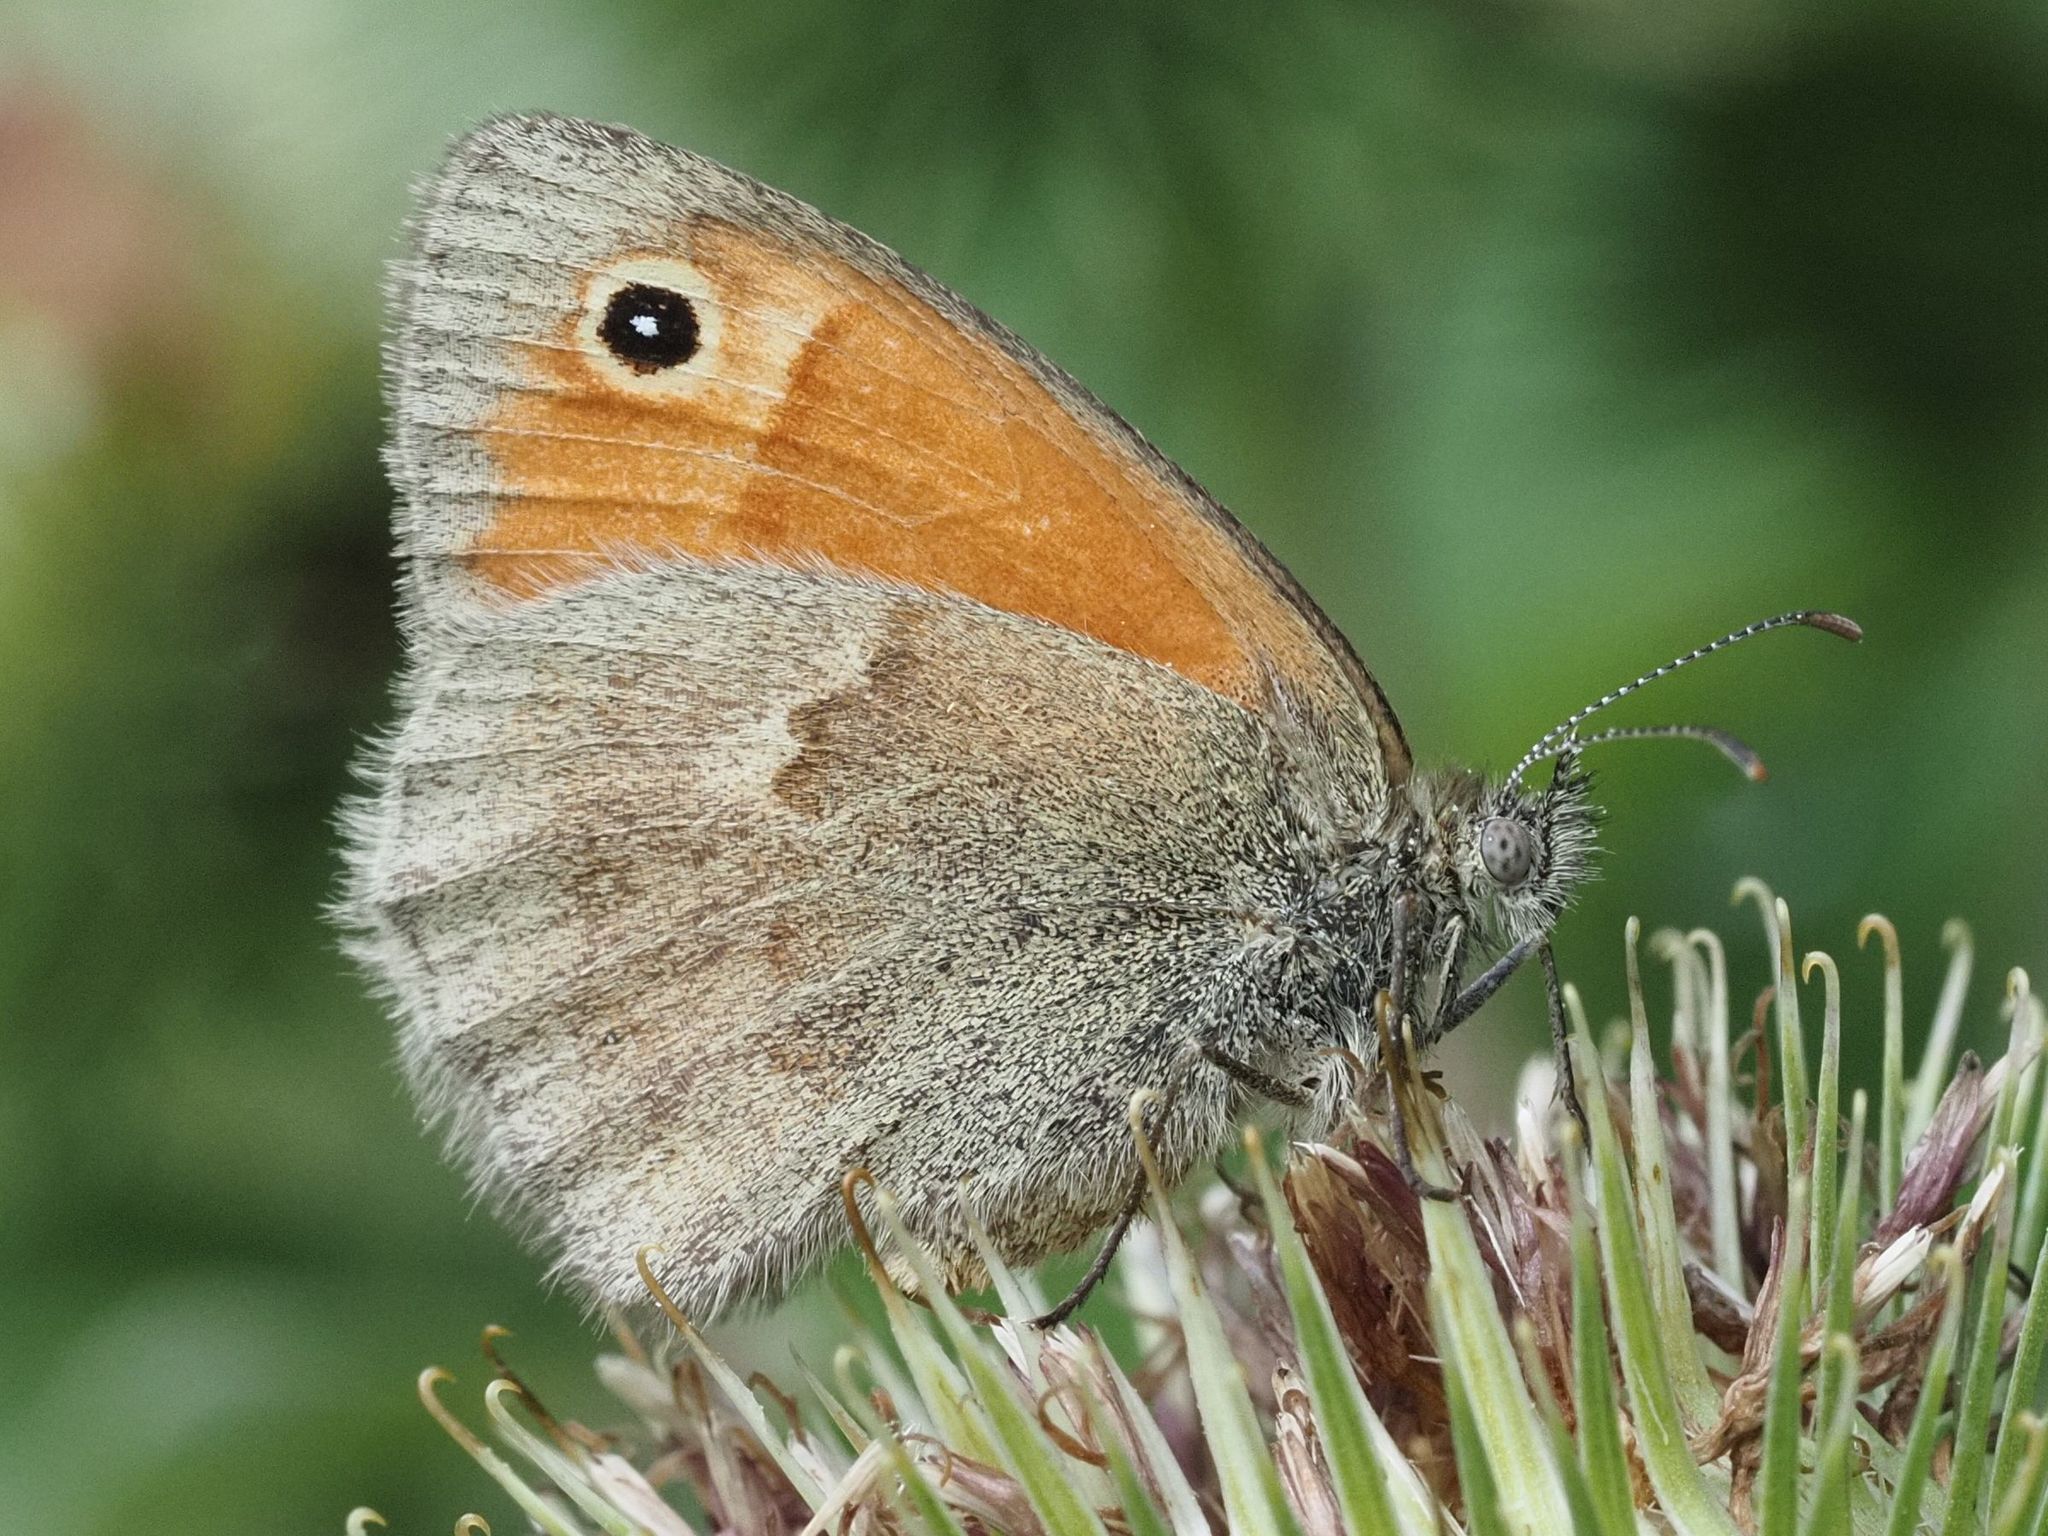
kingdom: Animalia
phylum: Arthropoda
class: Insecta
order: Lepidoptera
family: Nymphalidae
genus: Coenonympha
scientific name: Coenonympha pamphilus
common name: Small heath
